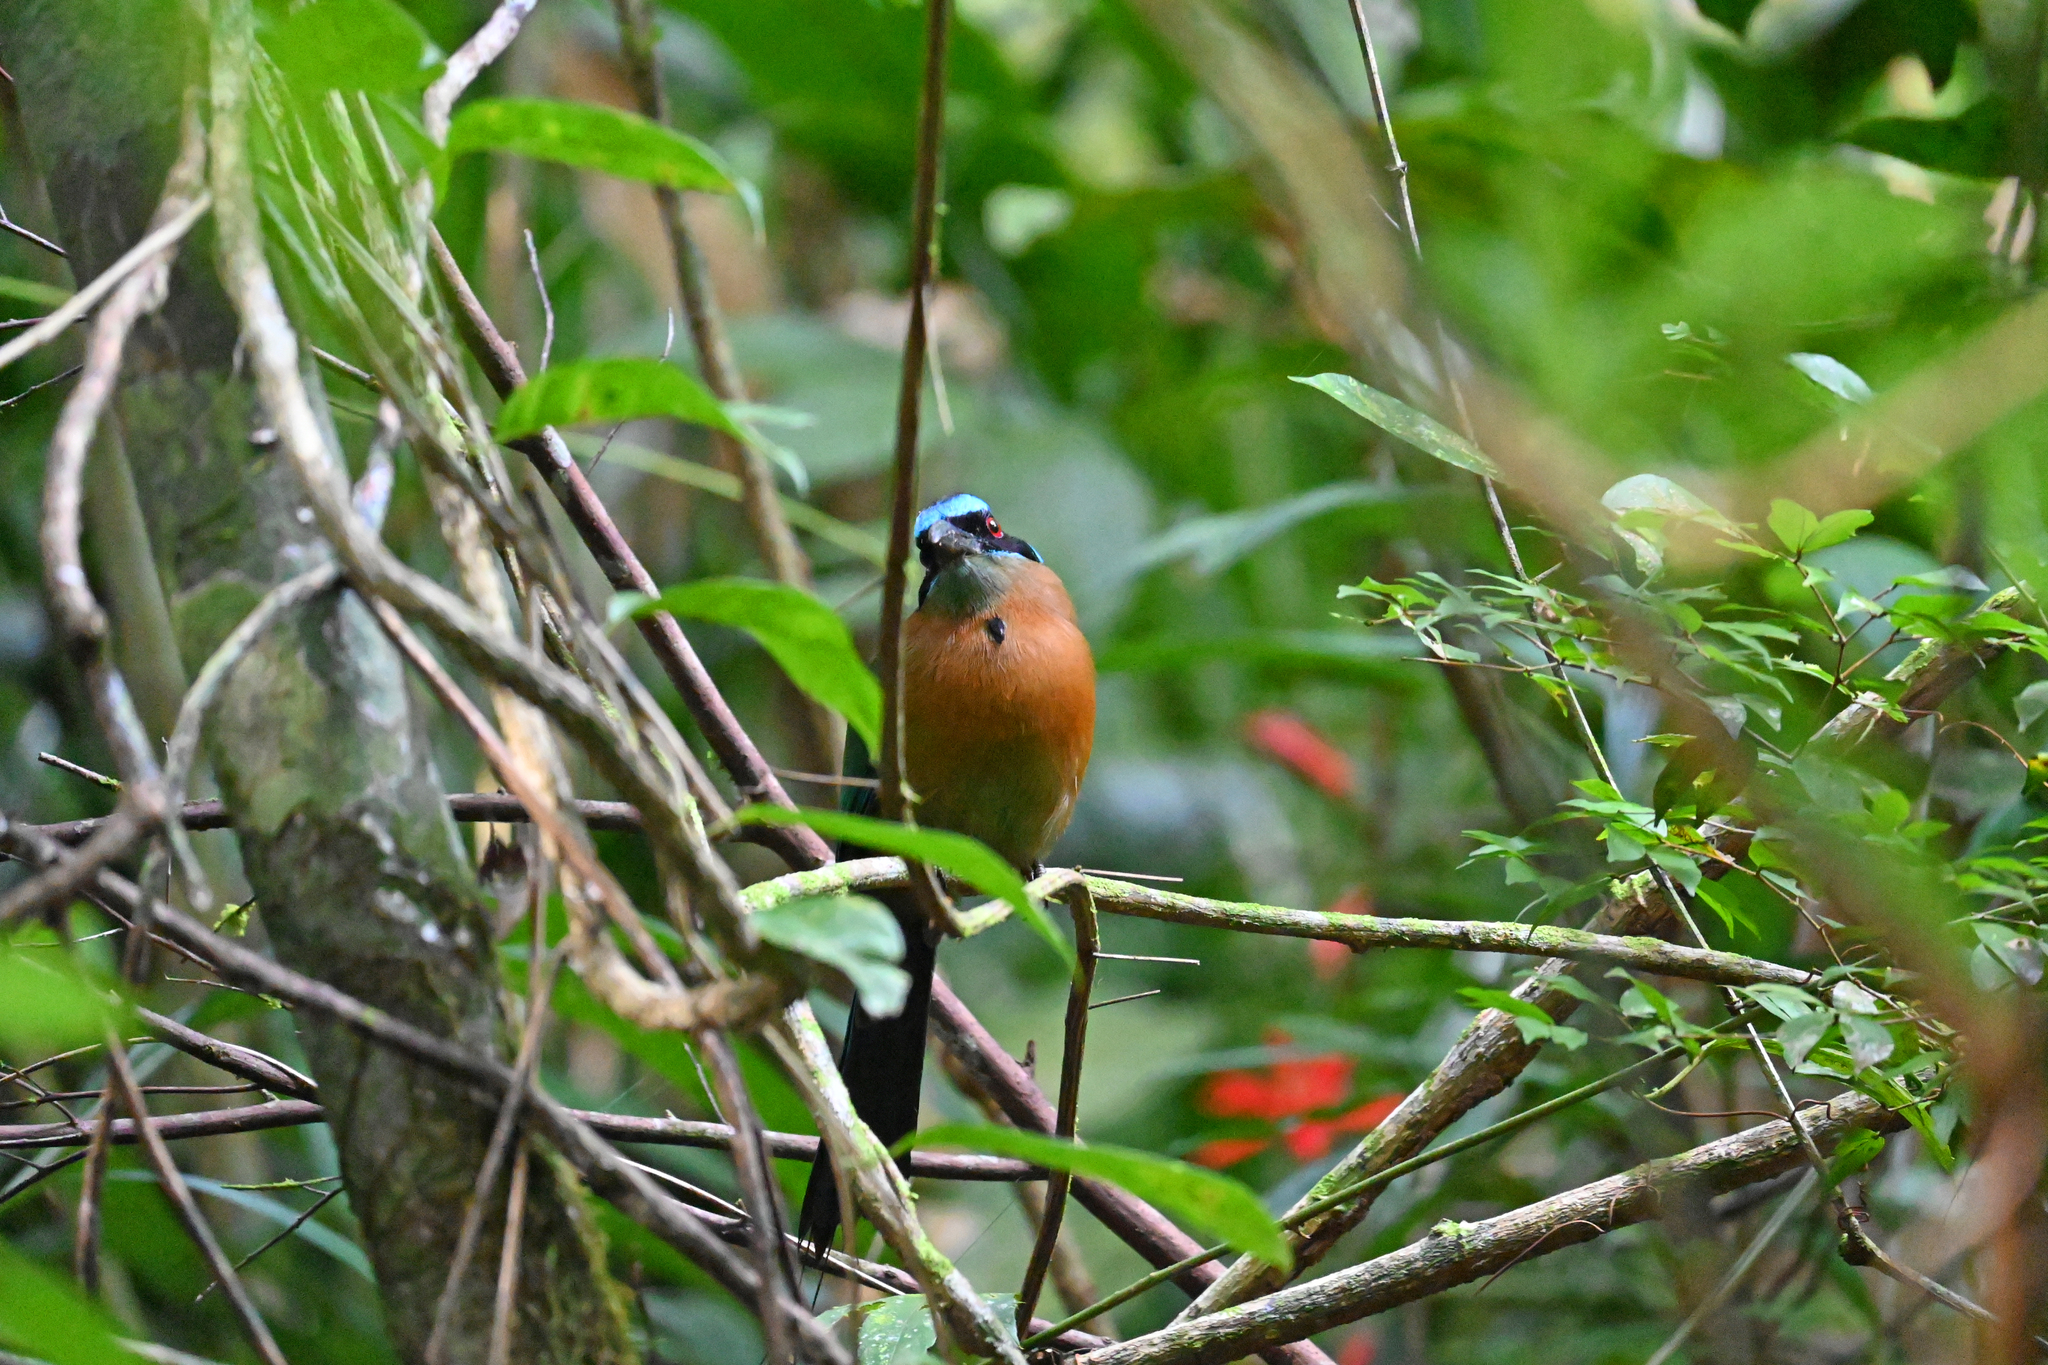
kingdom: Animalia
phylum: Chordata
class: Aves
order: Coraciiformes
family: Momotidae
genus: Momotus
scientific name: Momotus lessonii
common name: Lesson's motmot
